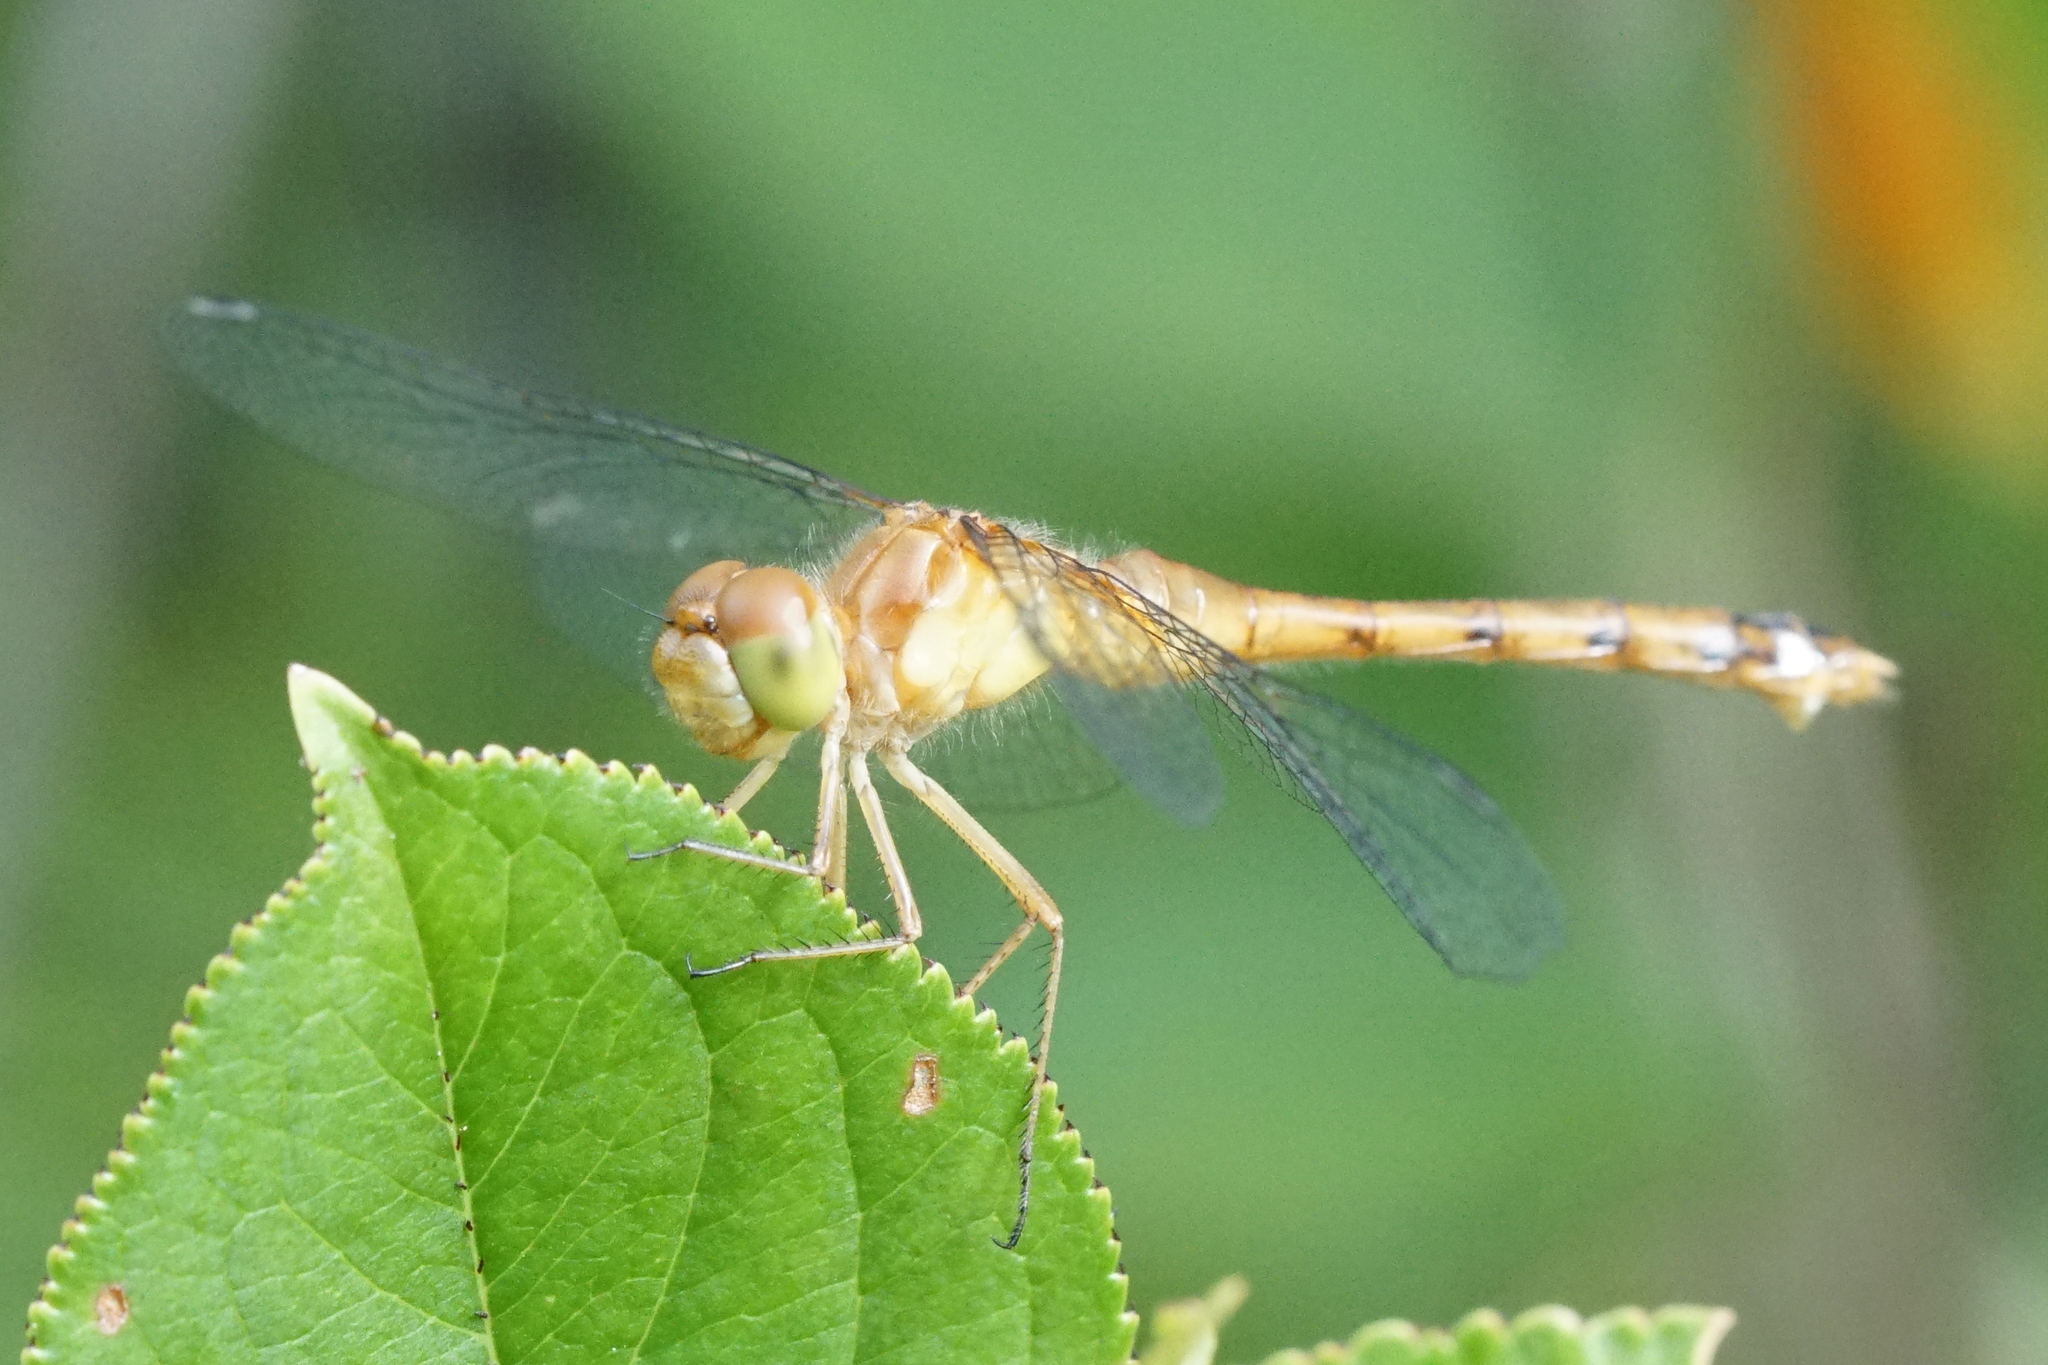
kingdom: Animalia
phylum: Arthropoda
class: Insecta
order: Odonata
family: Libellulidae
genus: Sympetrum
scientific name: Sympetrum vicinum
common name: Autumn meadowhawk
